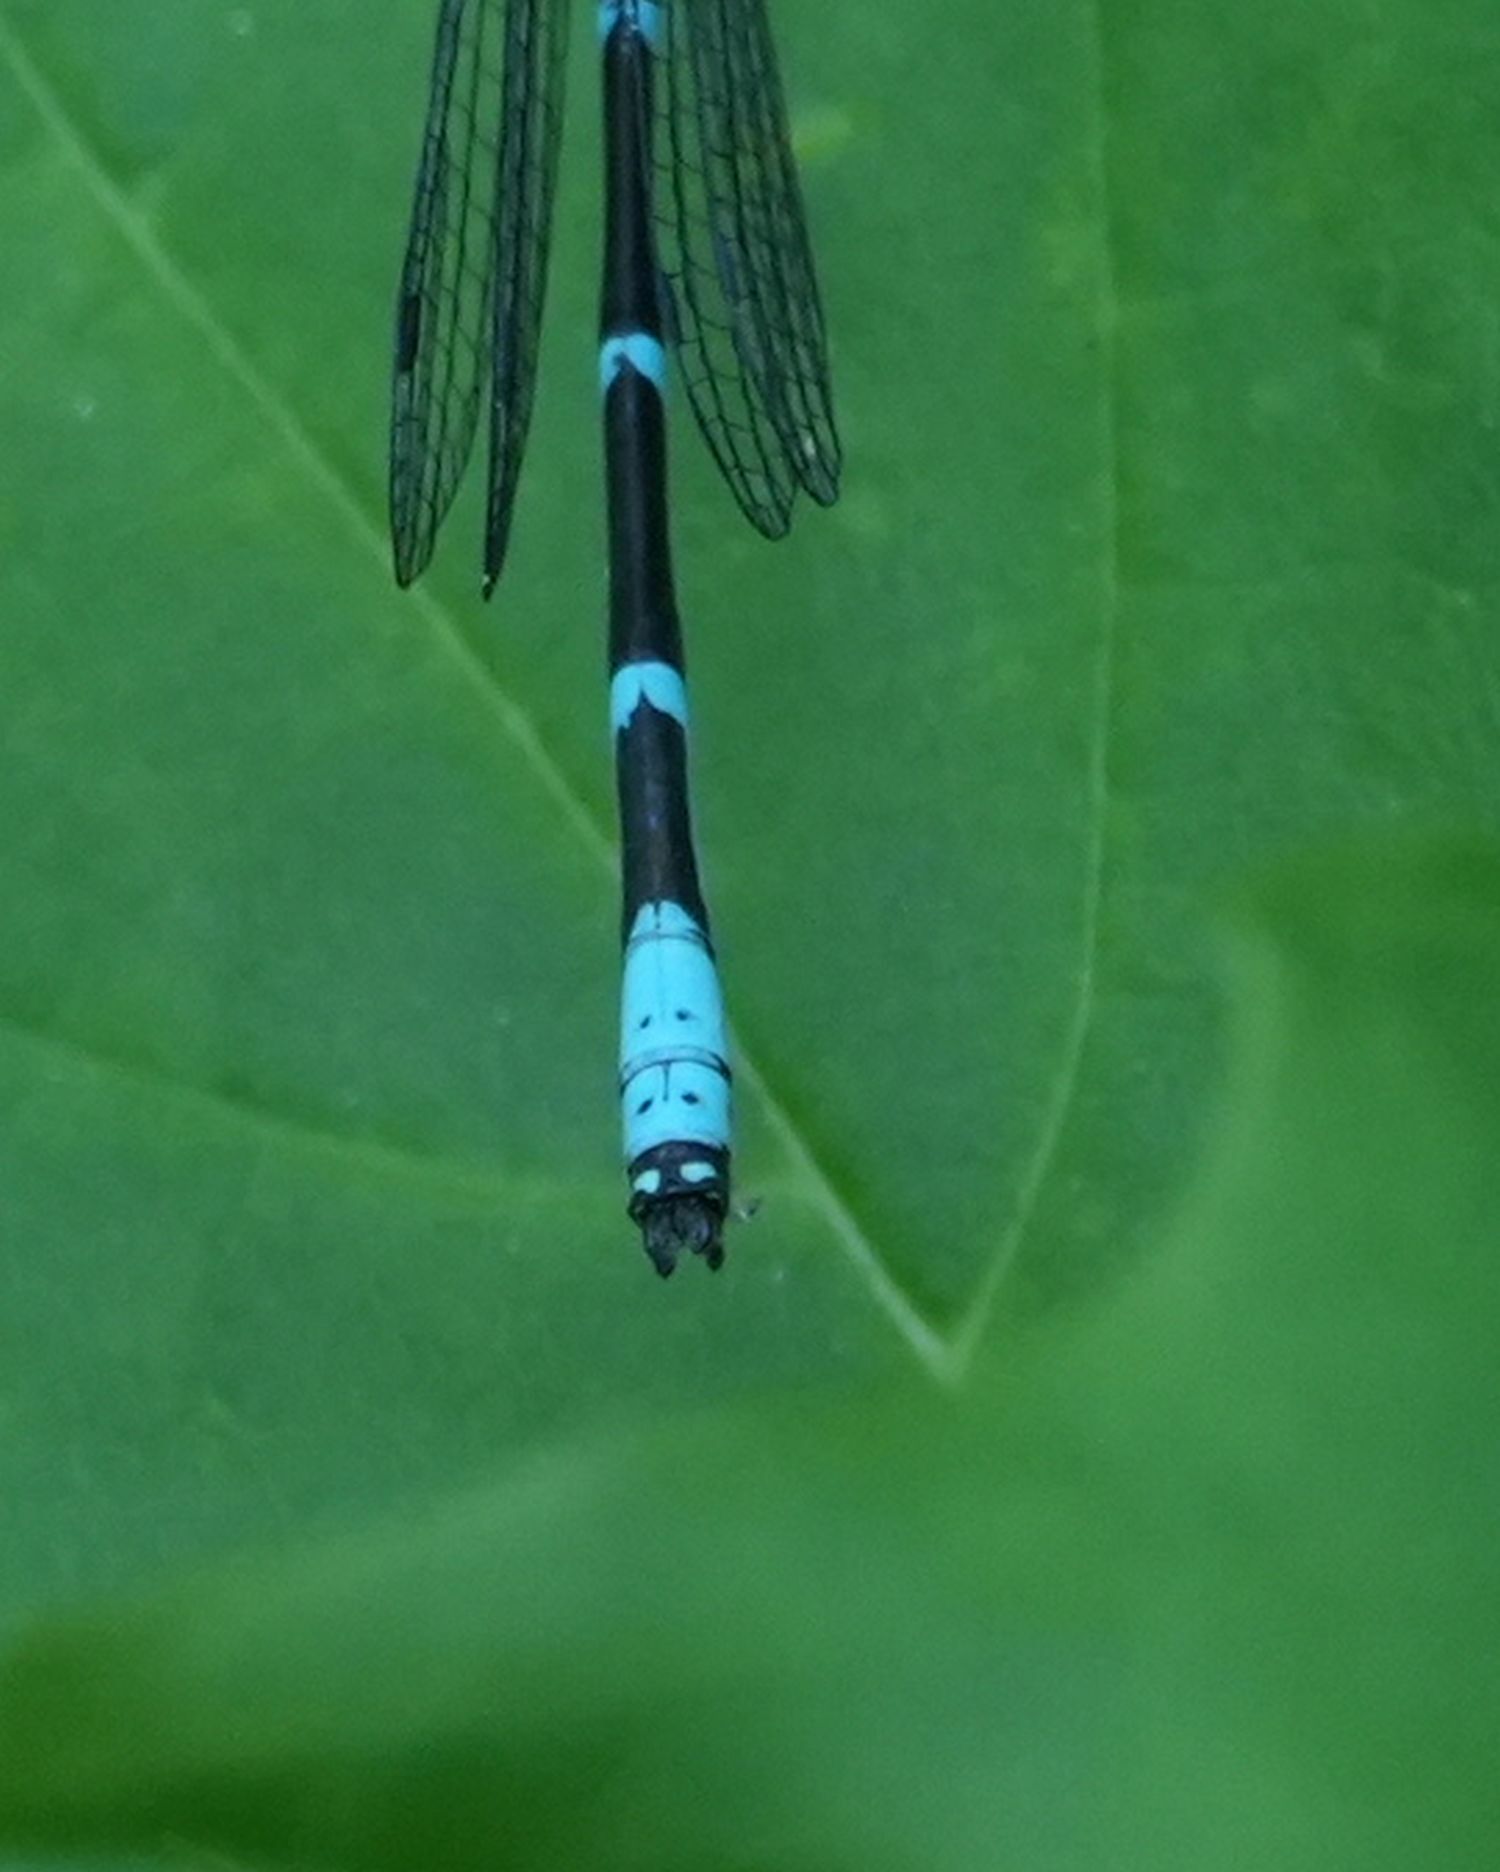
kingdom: Animalia
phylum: Arthropoda
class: Insecta
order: Odonata
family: Coenagrionidae
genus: Chromagrion
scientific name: Chromagrion conditum
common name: Aurora damsel
